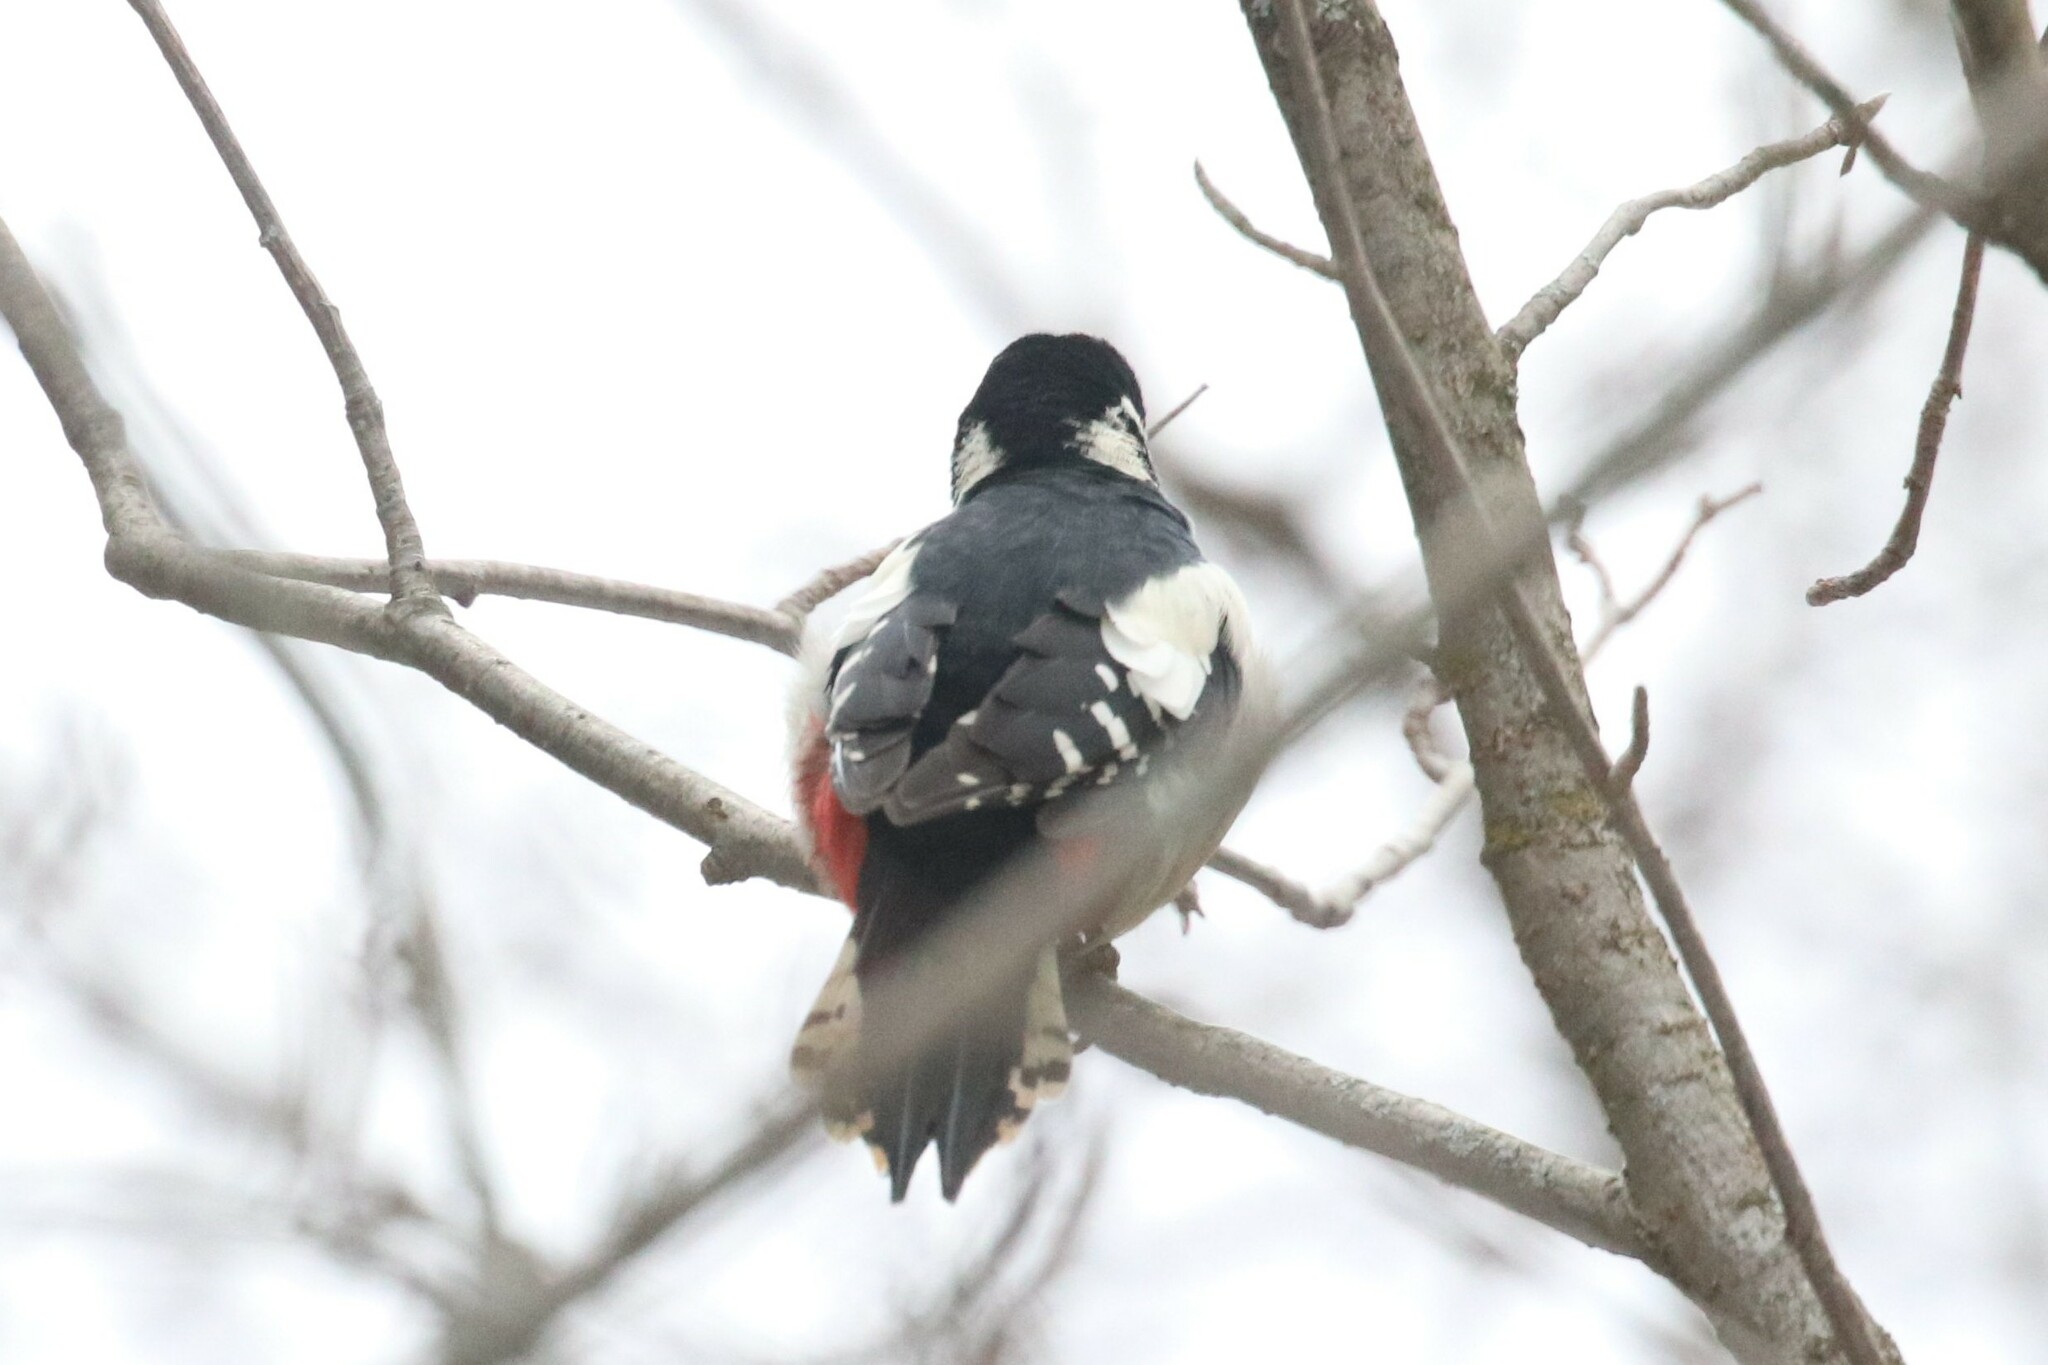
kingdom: Animalia
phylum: Chordata
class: Aves
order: Piciformes
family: Picidae
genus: Dendrocopos
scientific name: Dendrocopos major
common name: Great spotted woodpecker
